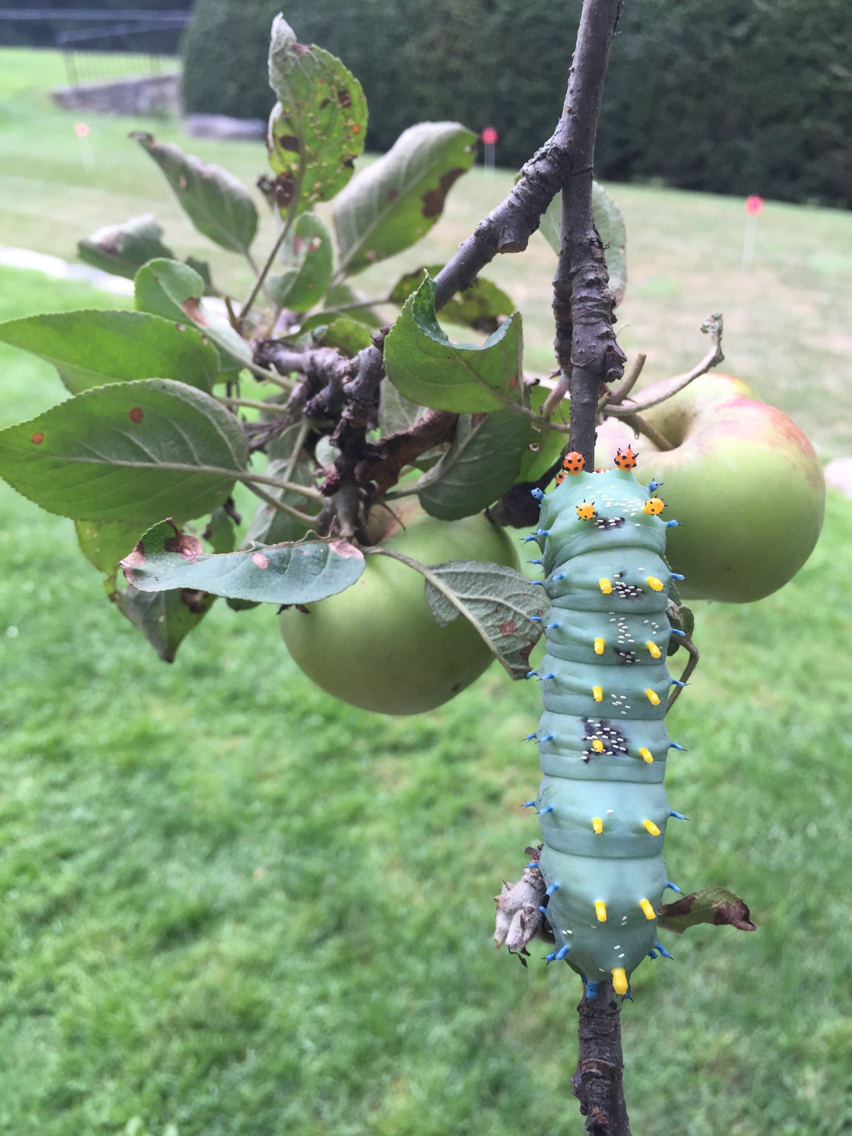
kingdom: Animalia
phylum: Arthropoda
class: Insecta
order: Lepidoptera
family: Saturniidae
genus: Hyalophora
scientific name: Hyalophora cecropia
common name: Cecropia silkmoth
